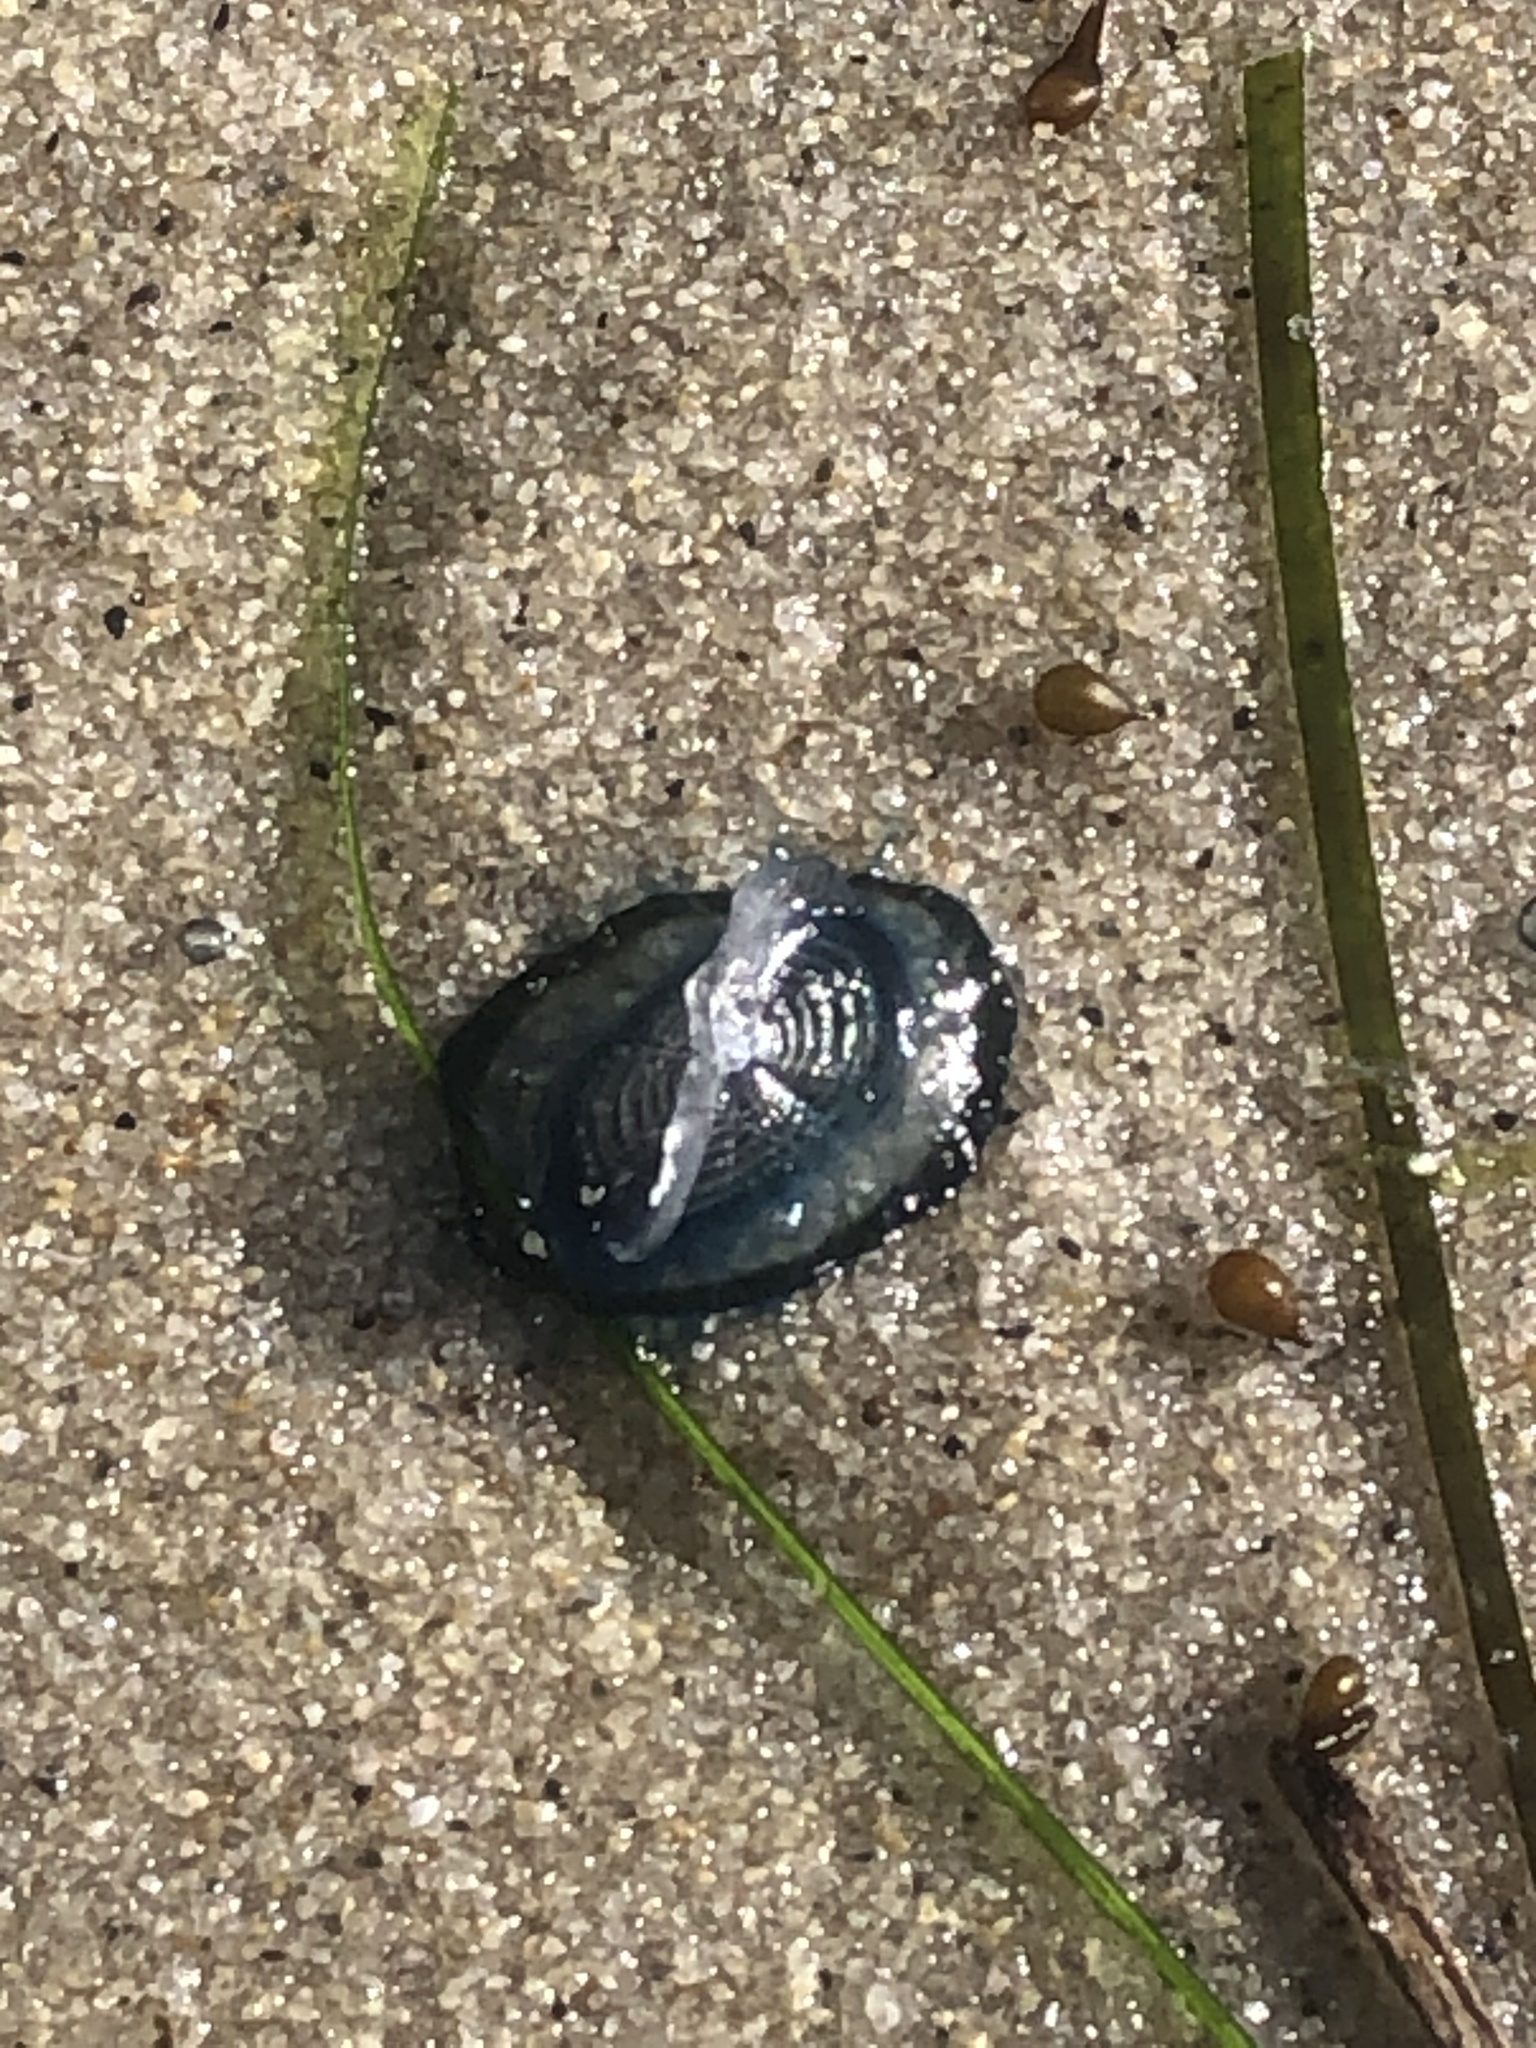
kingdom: Animalia
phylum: Cnidaria
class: Hydrozoa
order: Anthoathecata
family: Porpitidae
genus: Velella
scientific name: Velella velella
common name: By-the-wind-sailor
